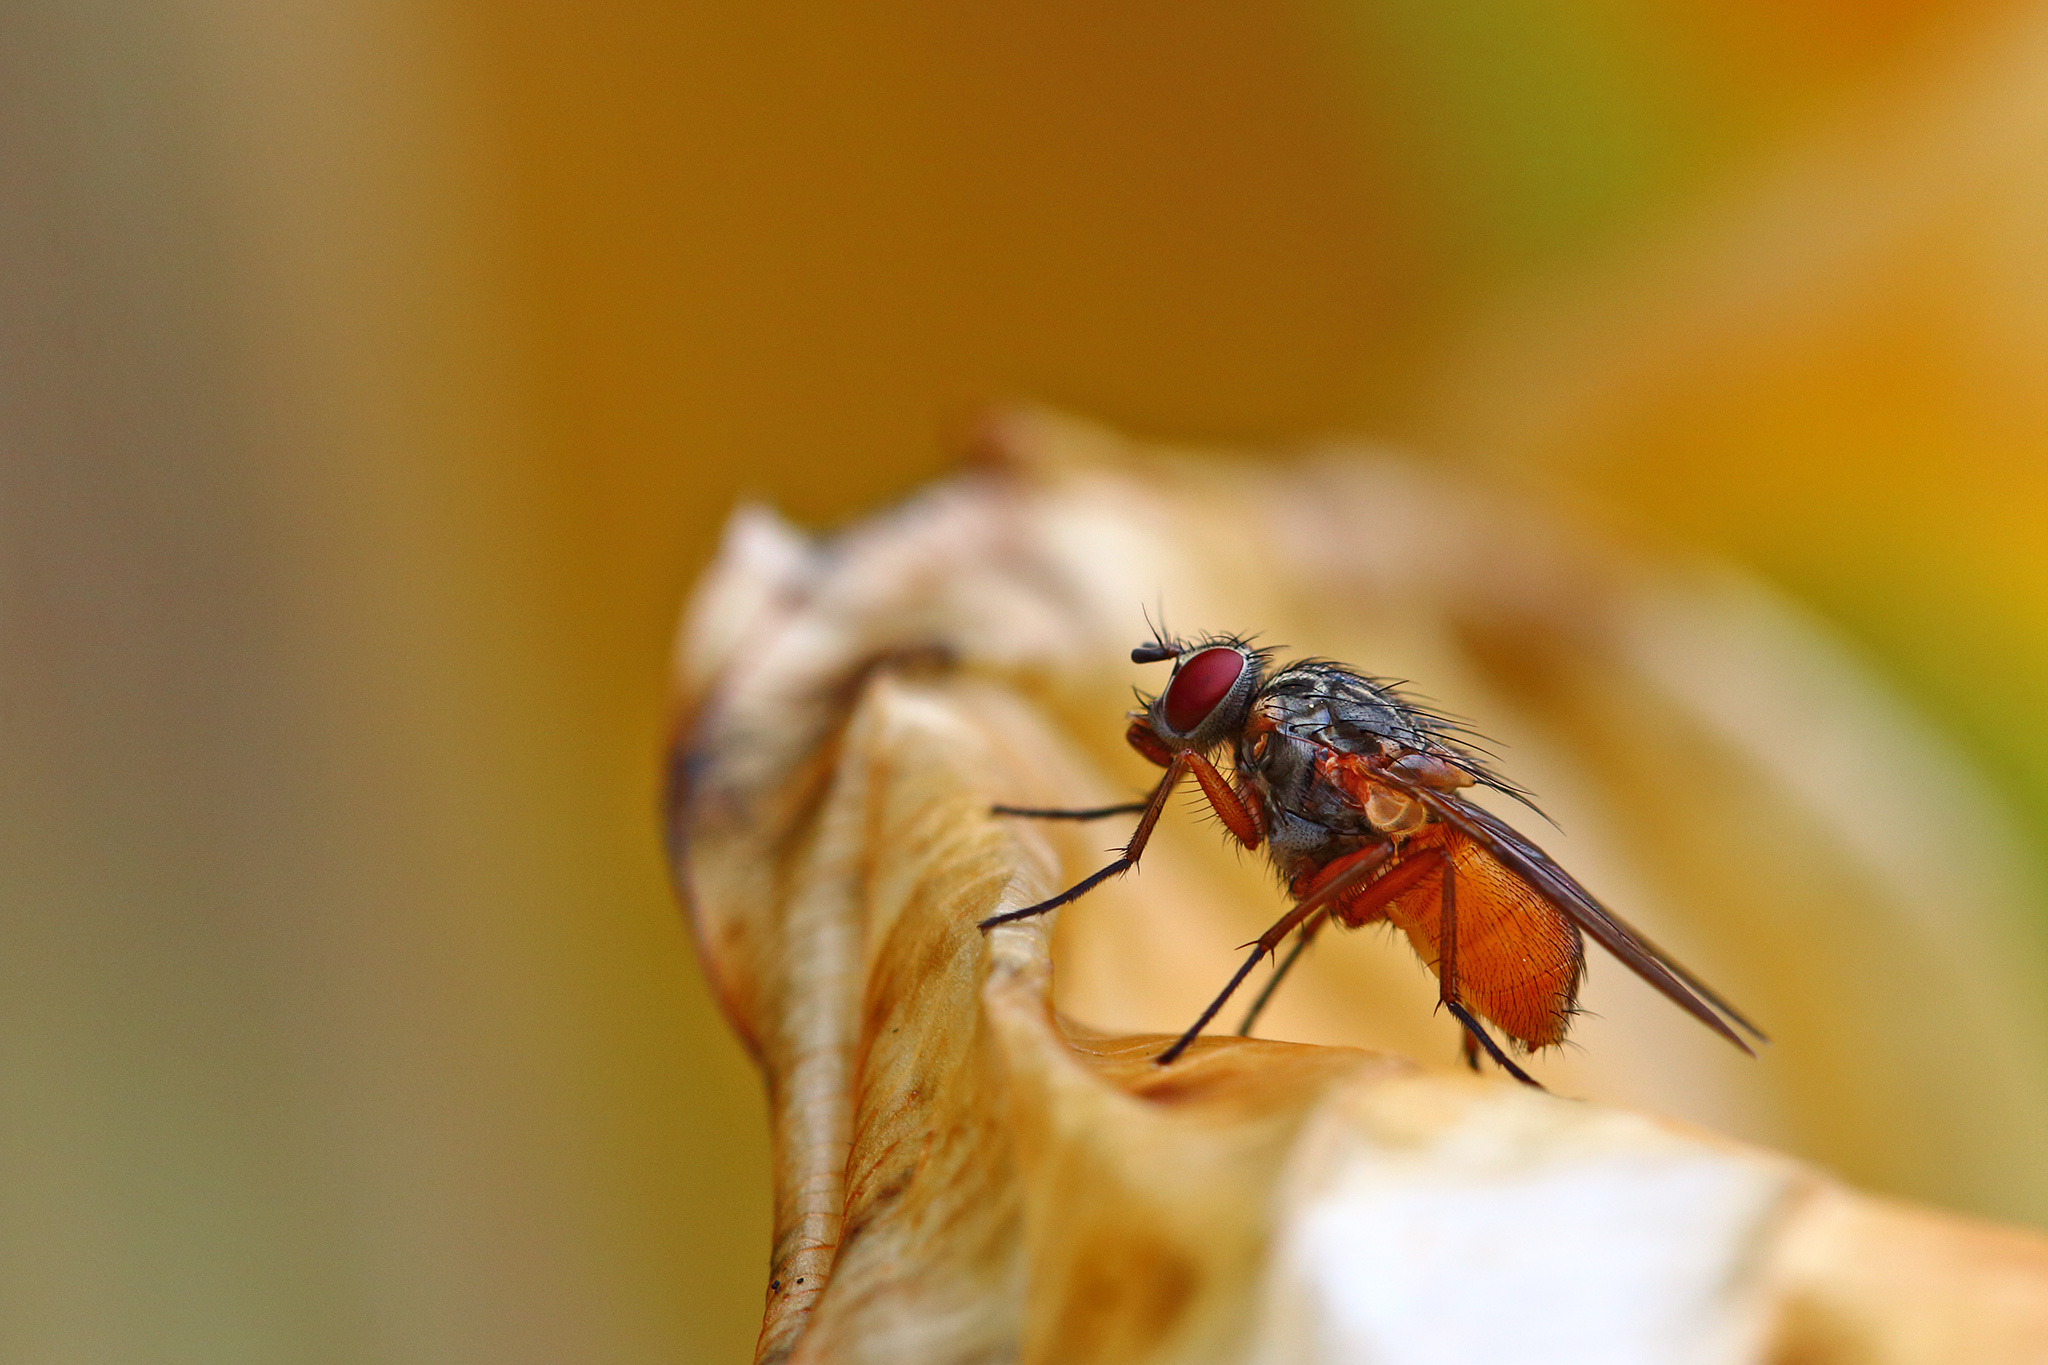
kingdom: Animalia
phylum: Arthropoda
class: Insecta
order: Diptera
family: Muscidae
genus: Phaonia
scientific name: Phaonia subventa
